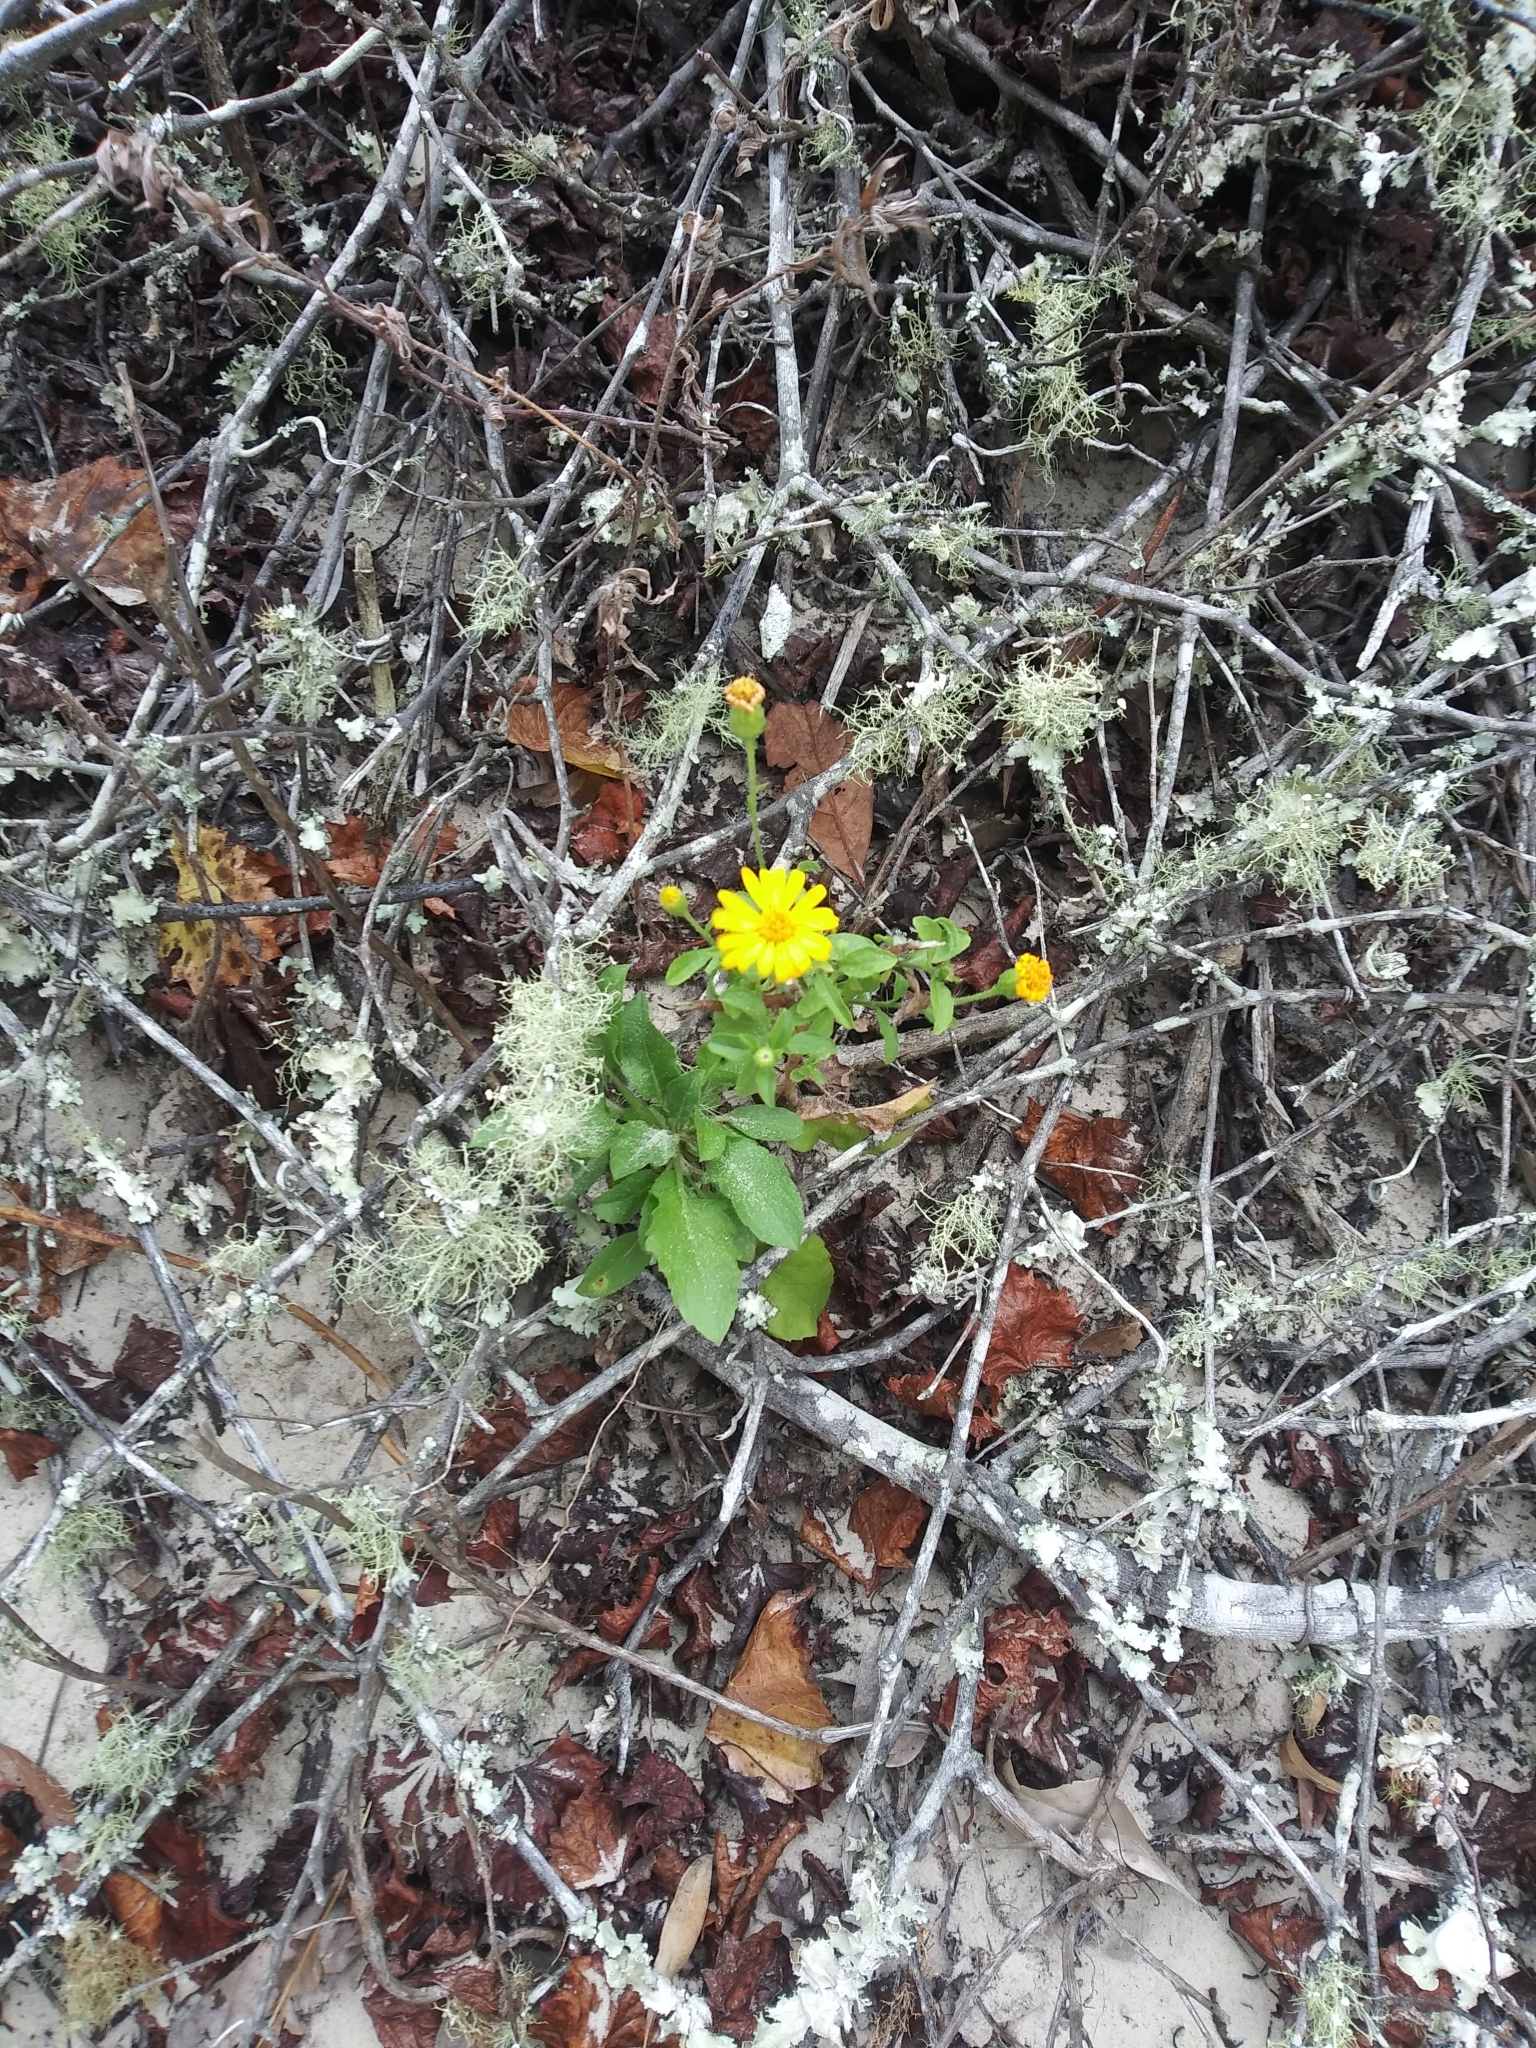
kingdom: Plantae
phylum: Tracheophyta
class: Magnoliopsida
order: Asterales
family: Asteraceae
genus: Heterotheca
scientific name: Heterotheca subaxillaris
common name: Camphorweed
